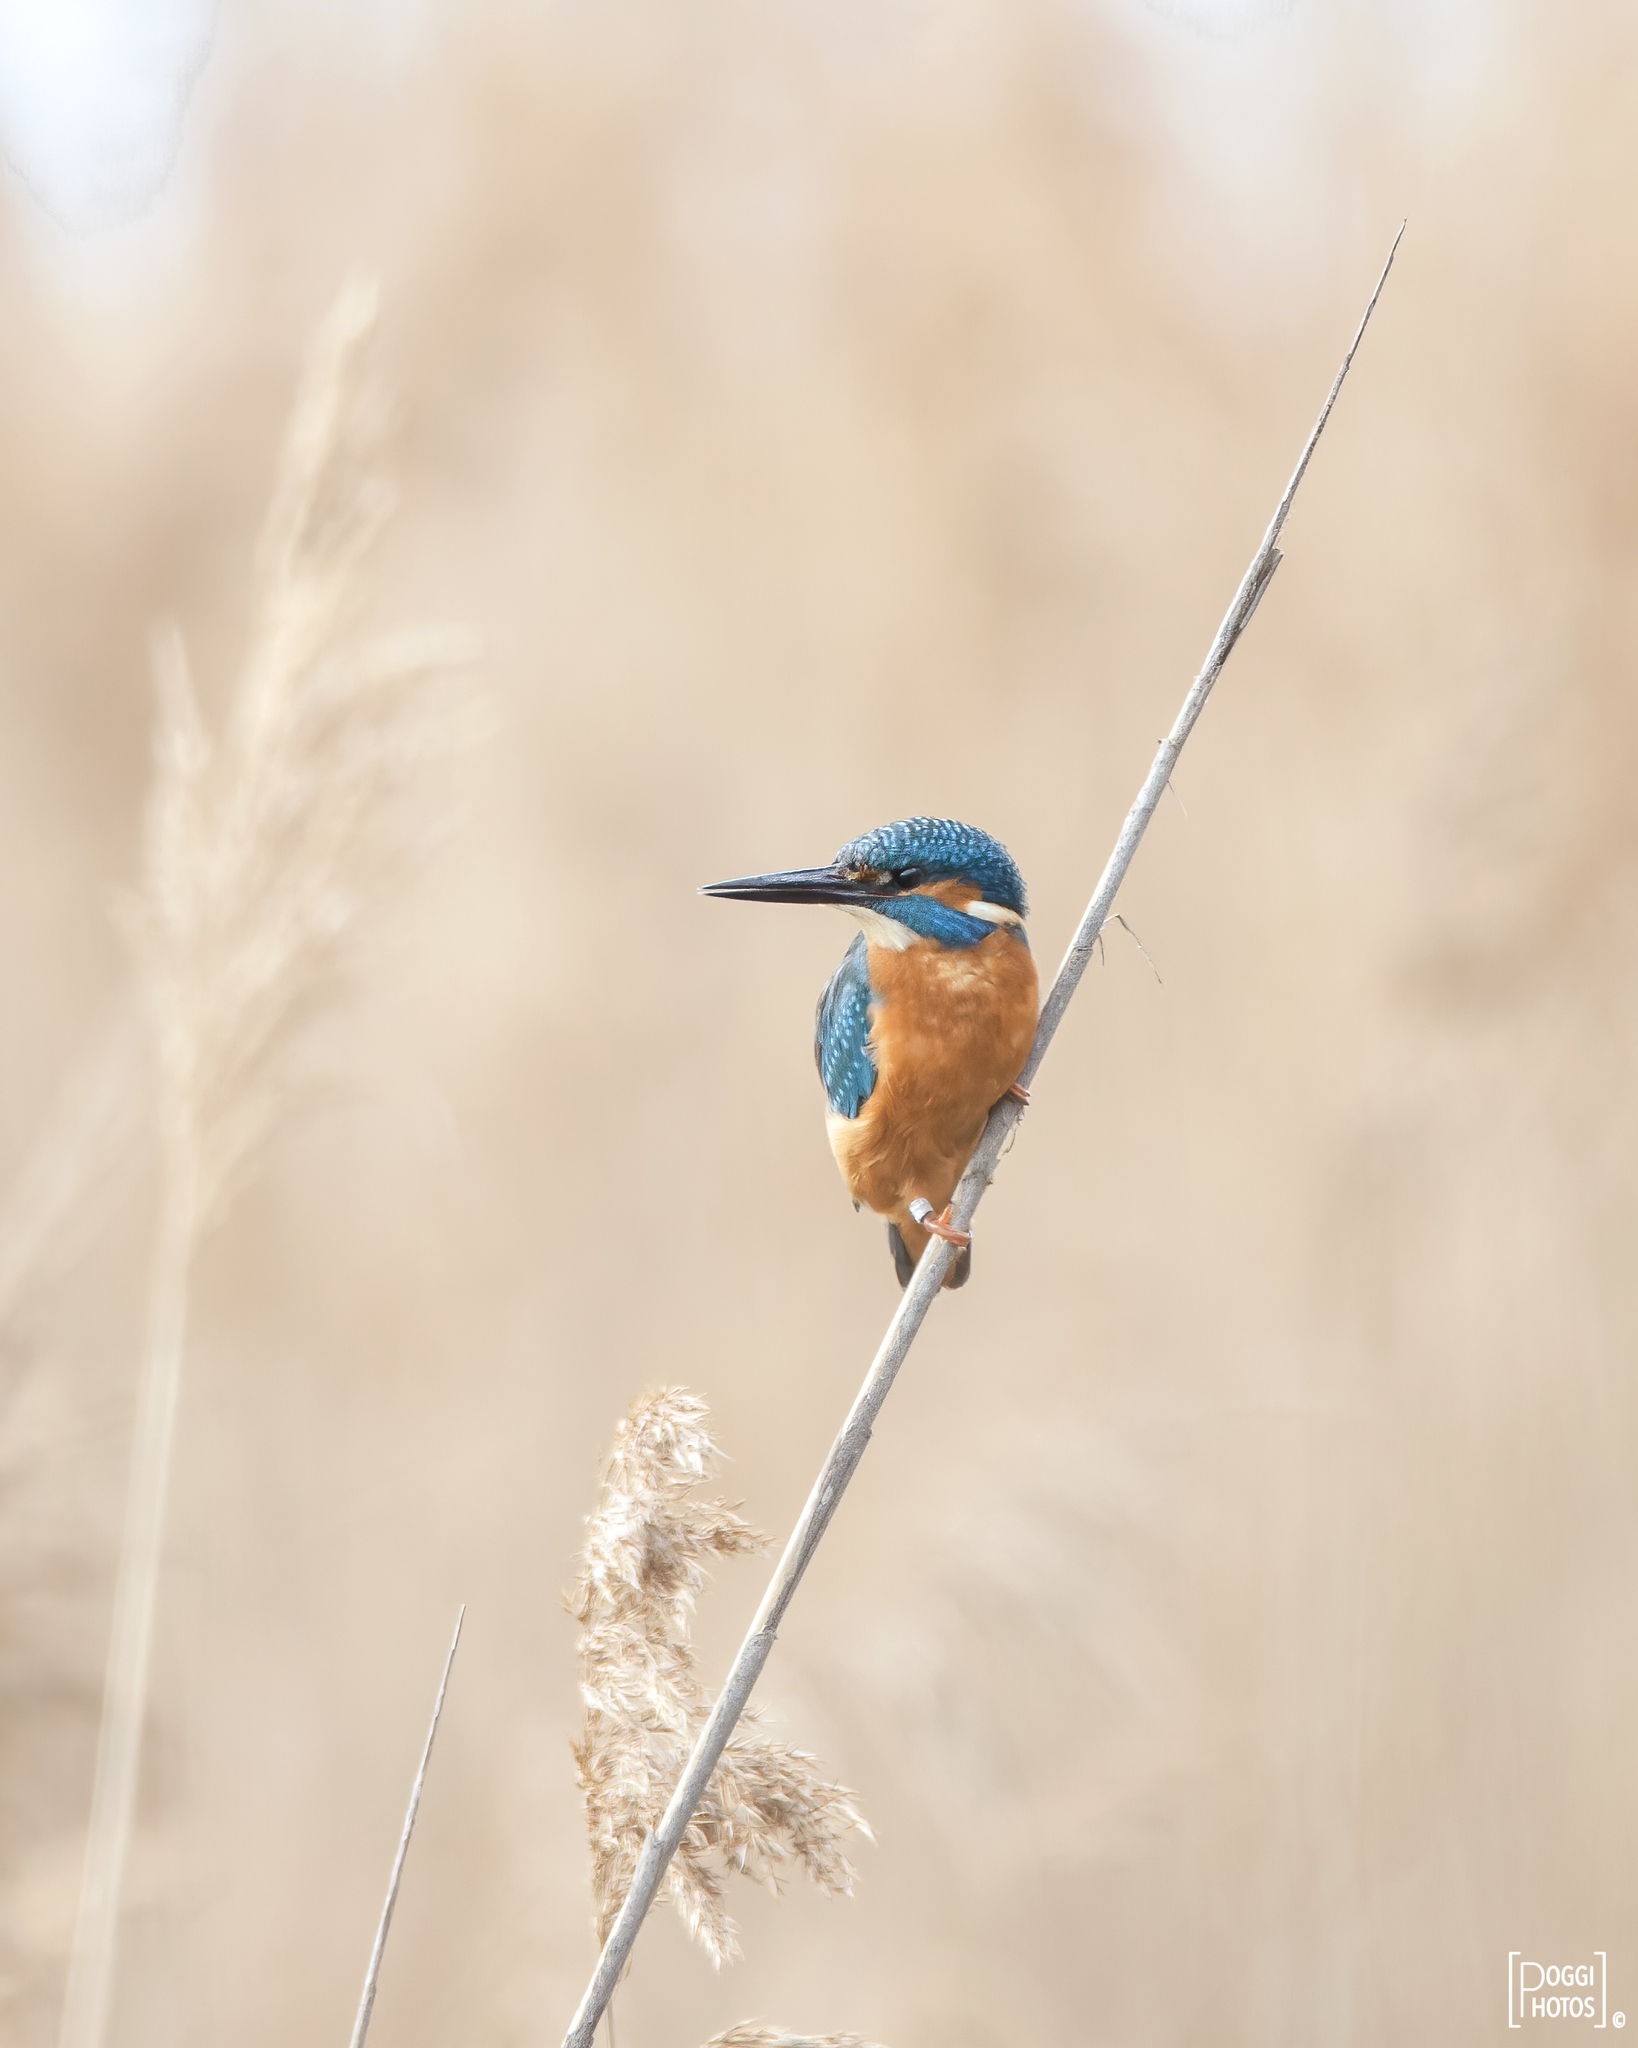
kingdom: Animalia
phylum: Chordata
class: Aves
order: Coraciiformes
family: Alcedinidae
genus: Alcedo
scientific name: Alcedo atthis
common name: Common kingfisher
